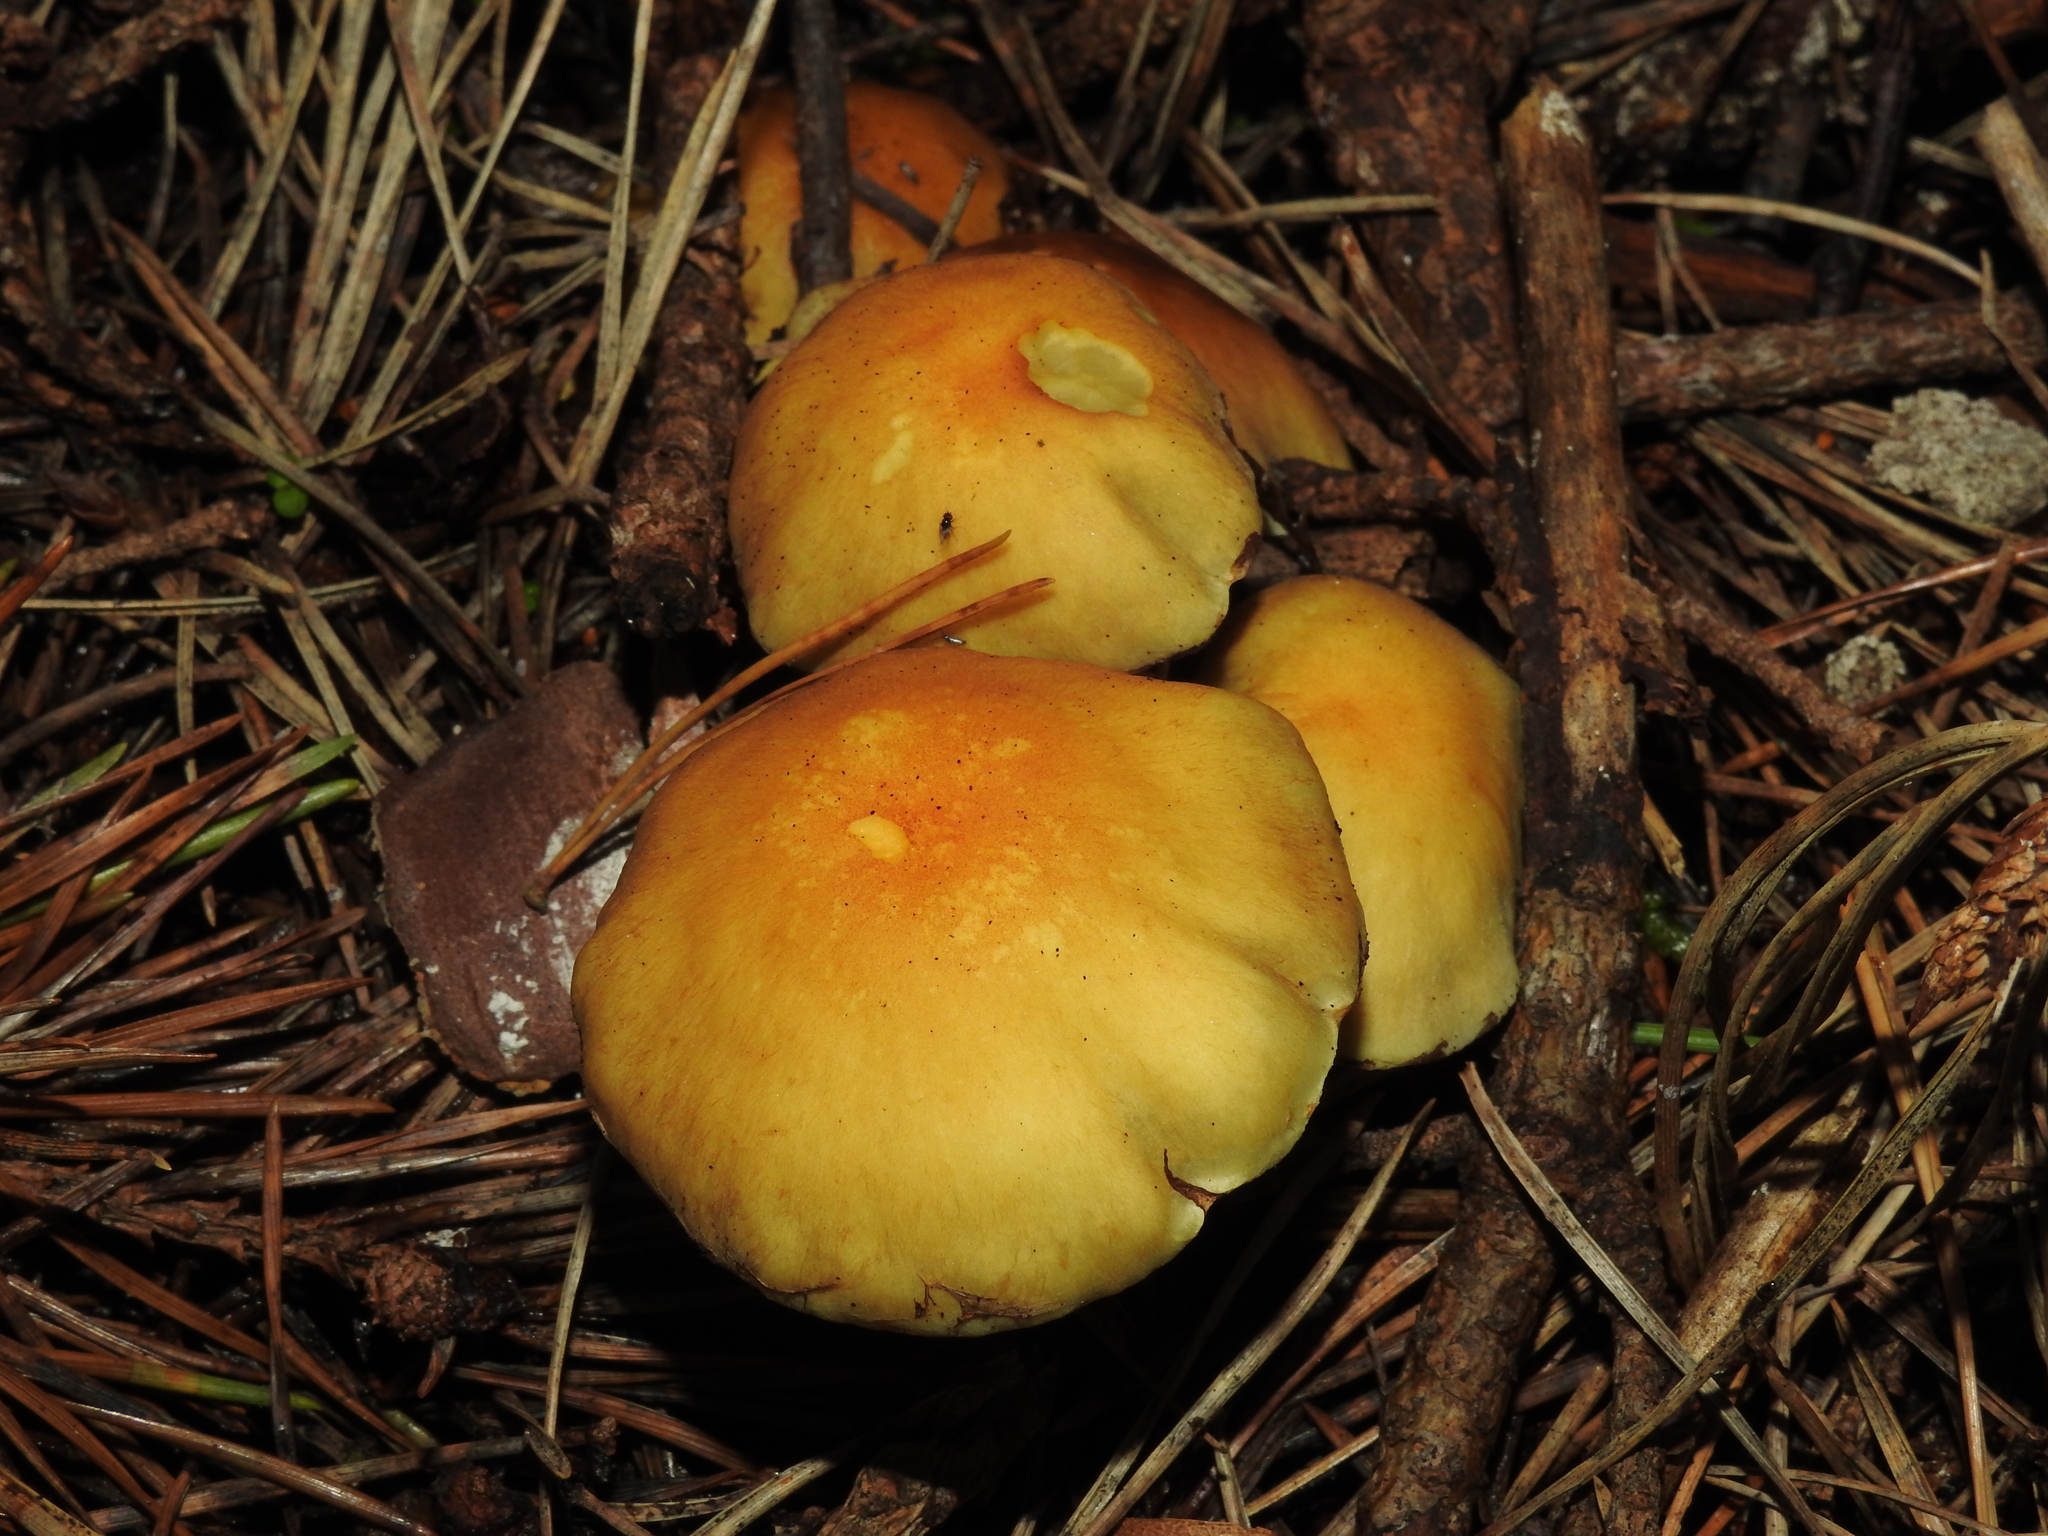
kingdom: Fungi
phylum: Basidiomycota
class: Agaricomycetes
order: Agaricales
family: Strophariaceae
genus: Hypholoma
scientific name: Hypholoma fasciculare
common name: Sulphur tuft
